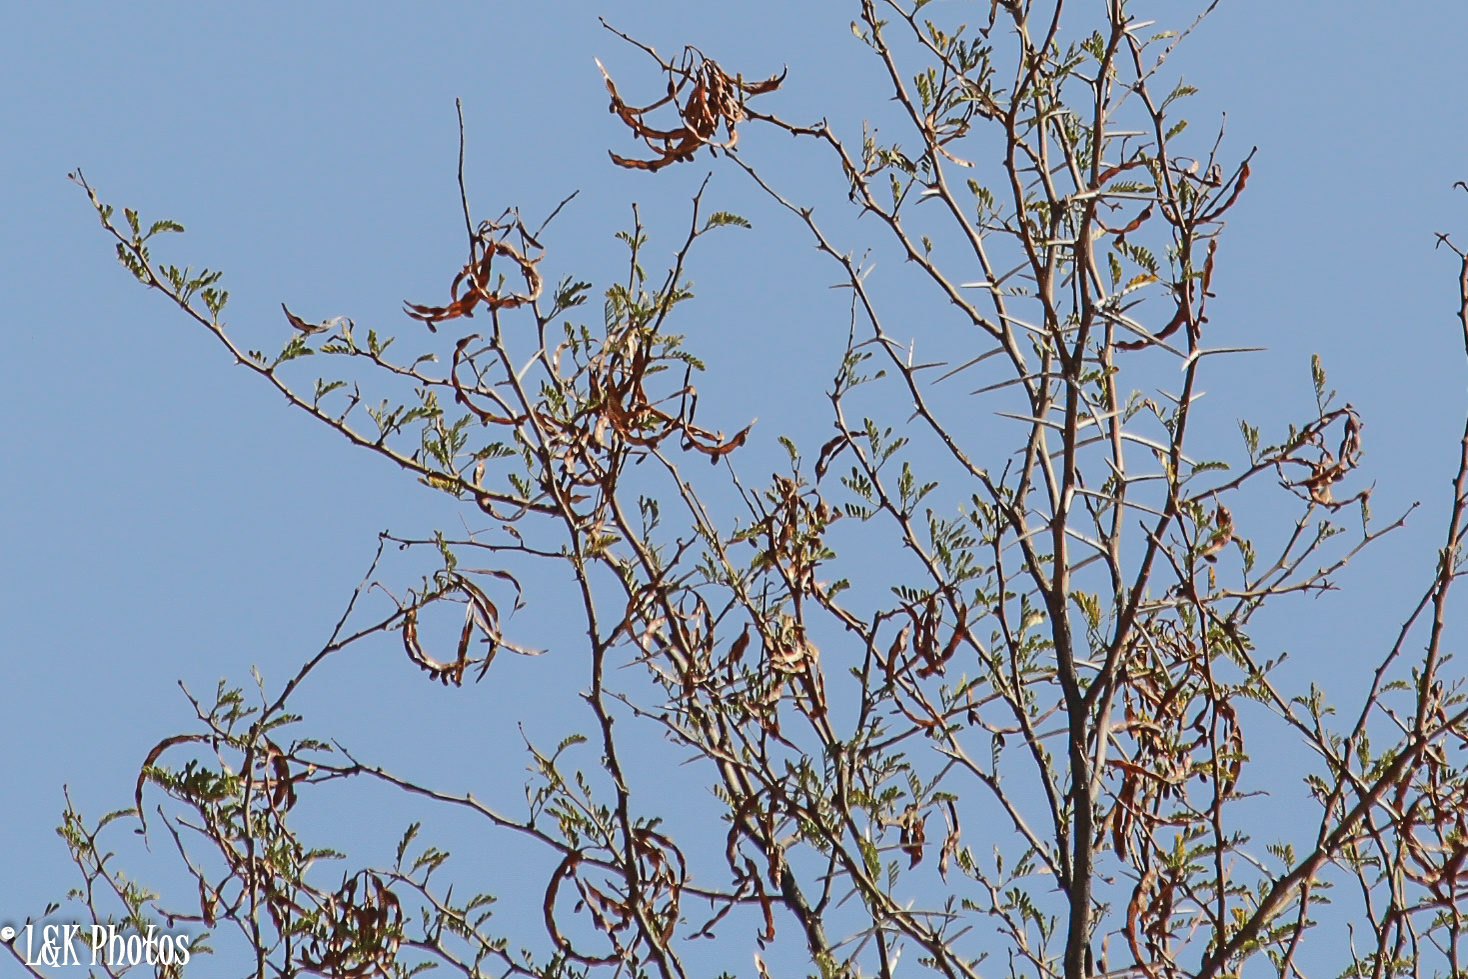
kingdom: Plantae
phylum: Tracheophyta
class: Magnoliopsida
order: Fabales
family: Fabaceae
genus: Vachellia
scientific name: Vachellia karroo
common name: Sweet thorn
